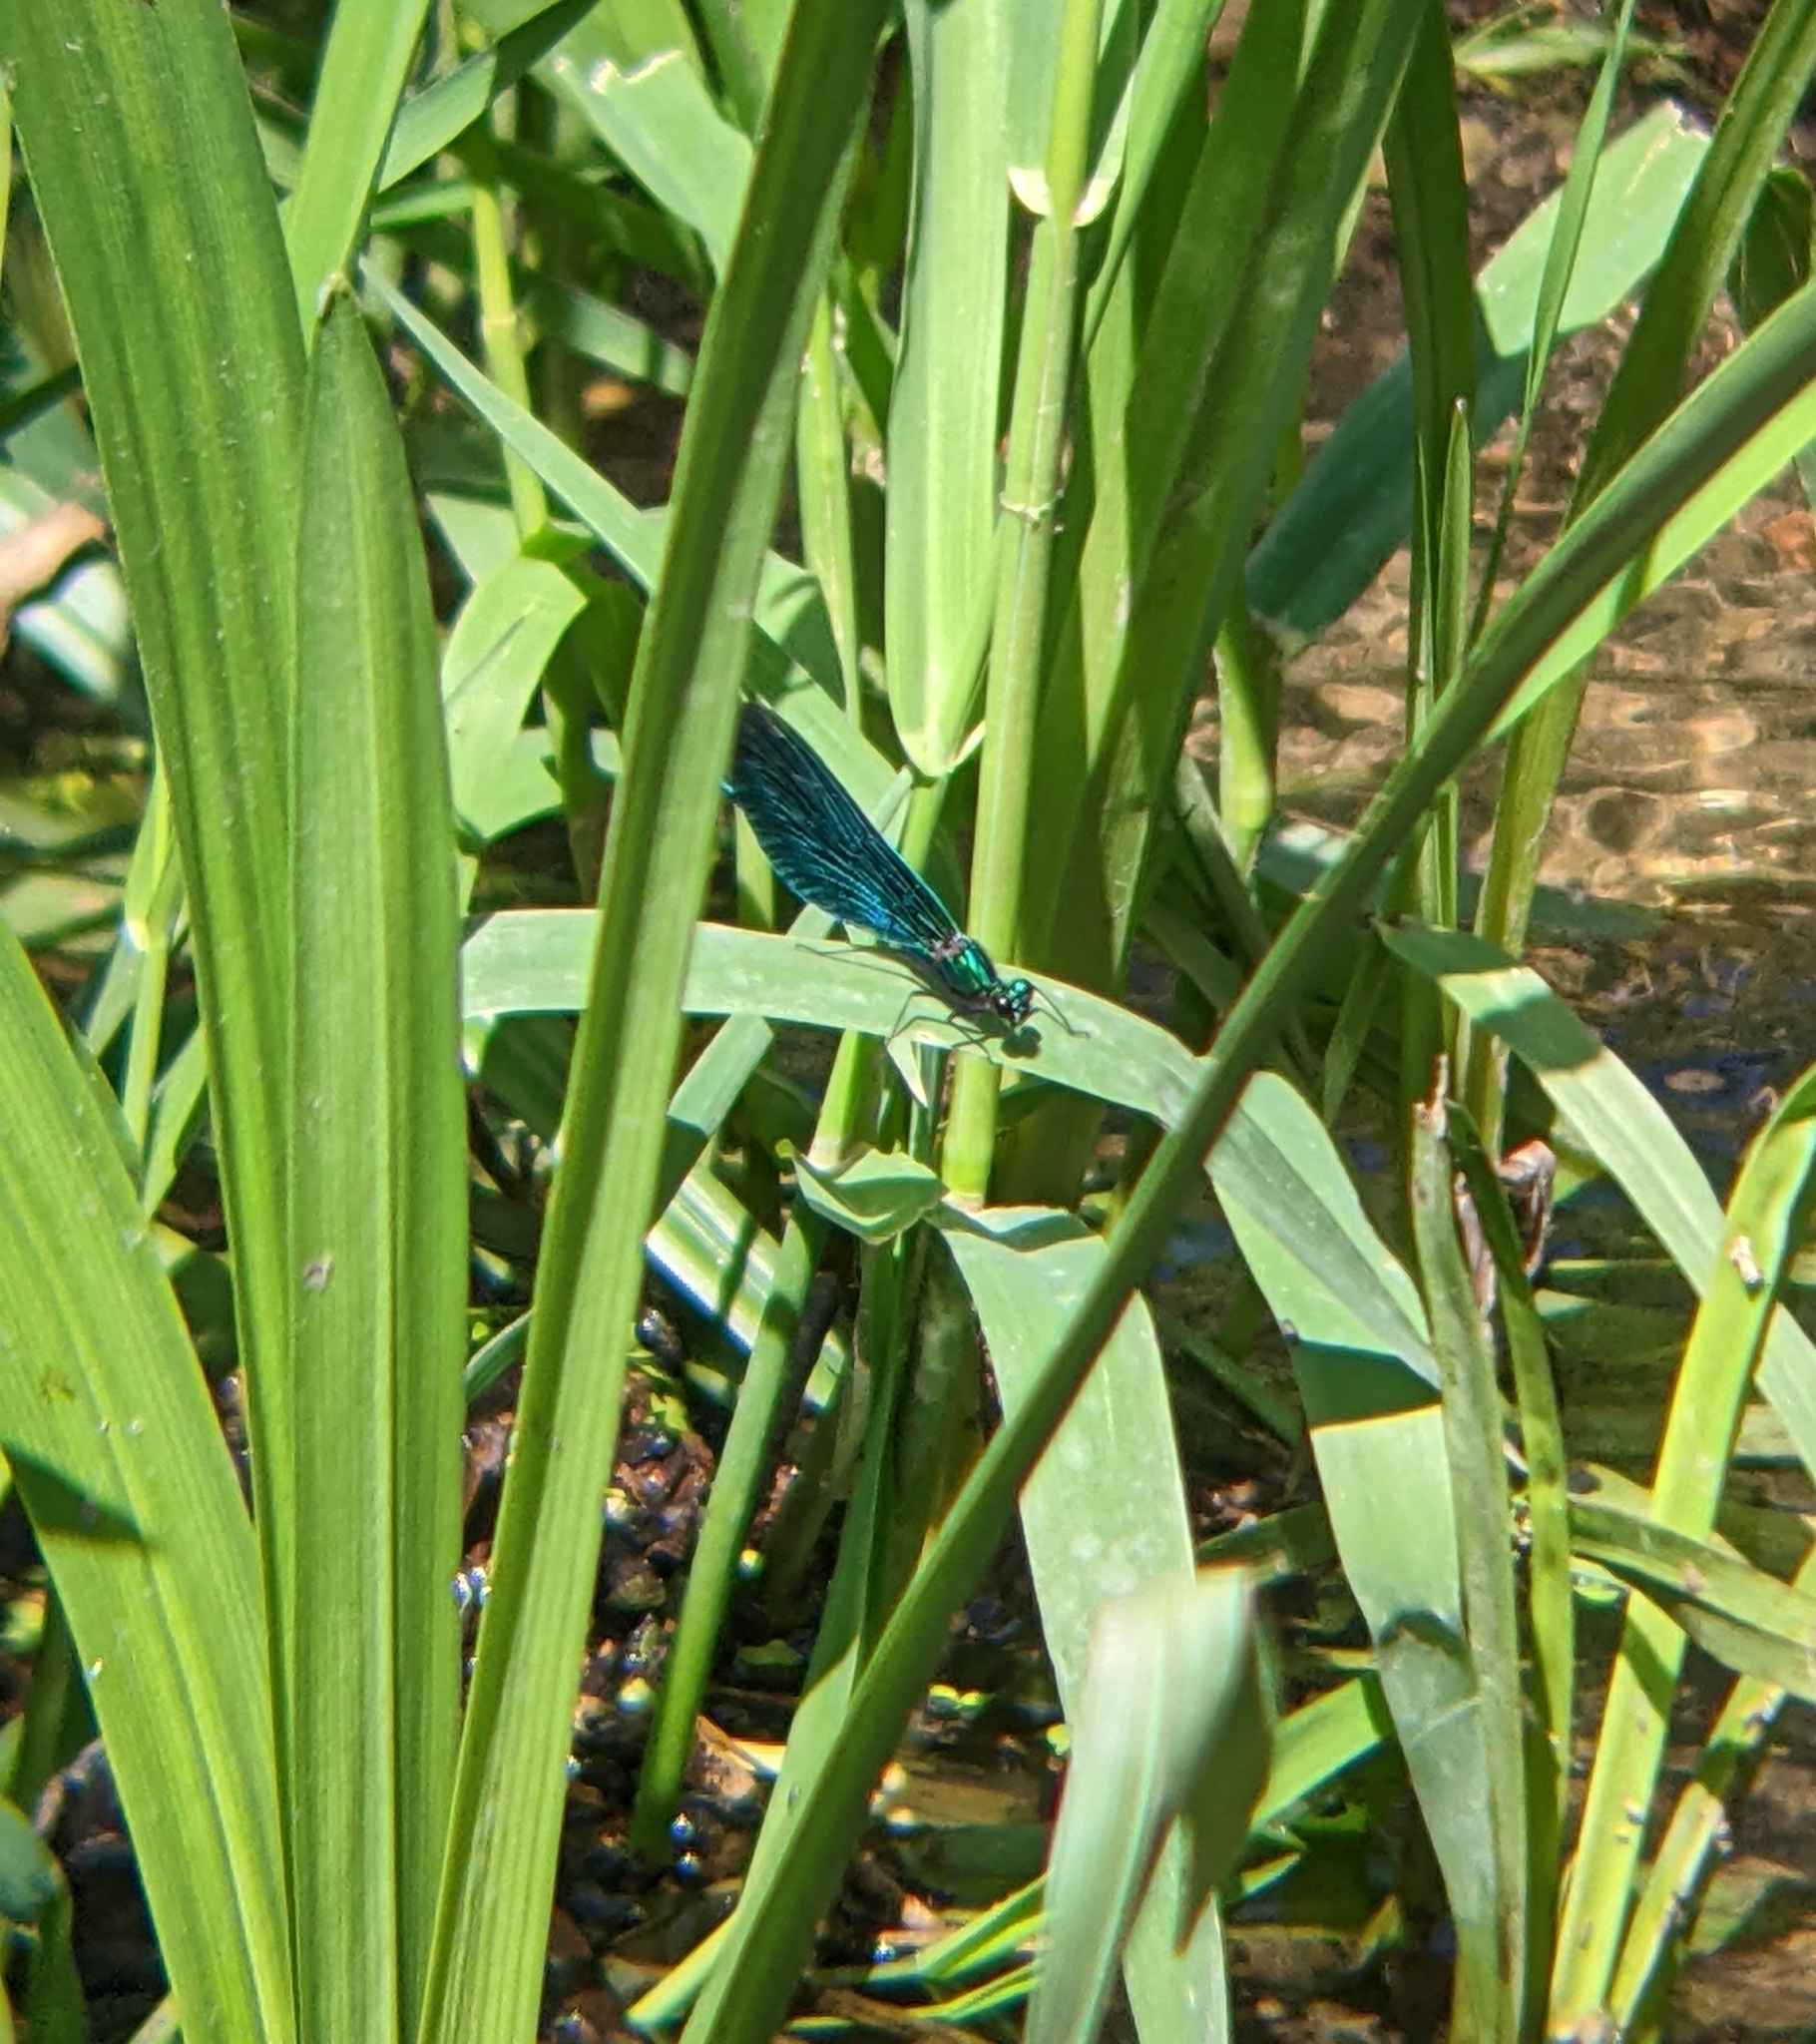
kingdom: Animalia
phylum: Arthropoda
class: Insecta
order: Odonata
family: Calopterygidae
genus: Calopteryx
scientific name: Calopteryx virgo
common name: Beautiful demoiselle
